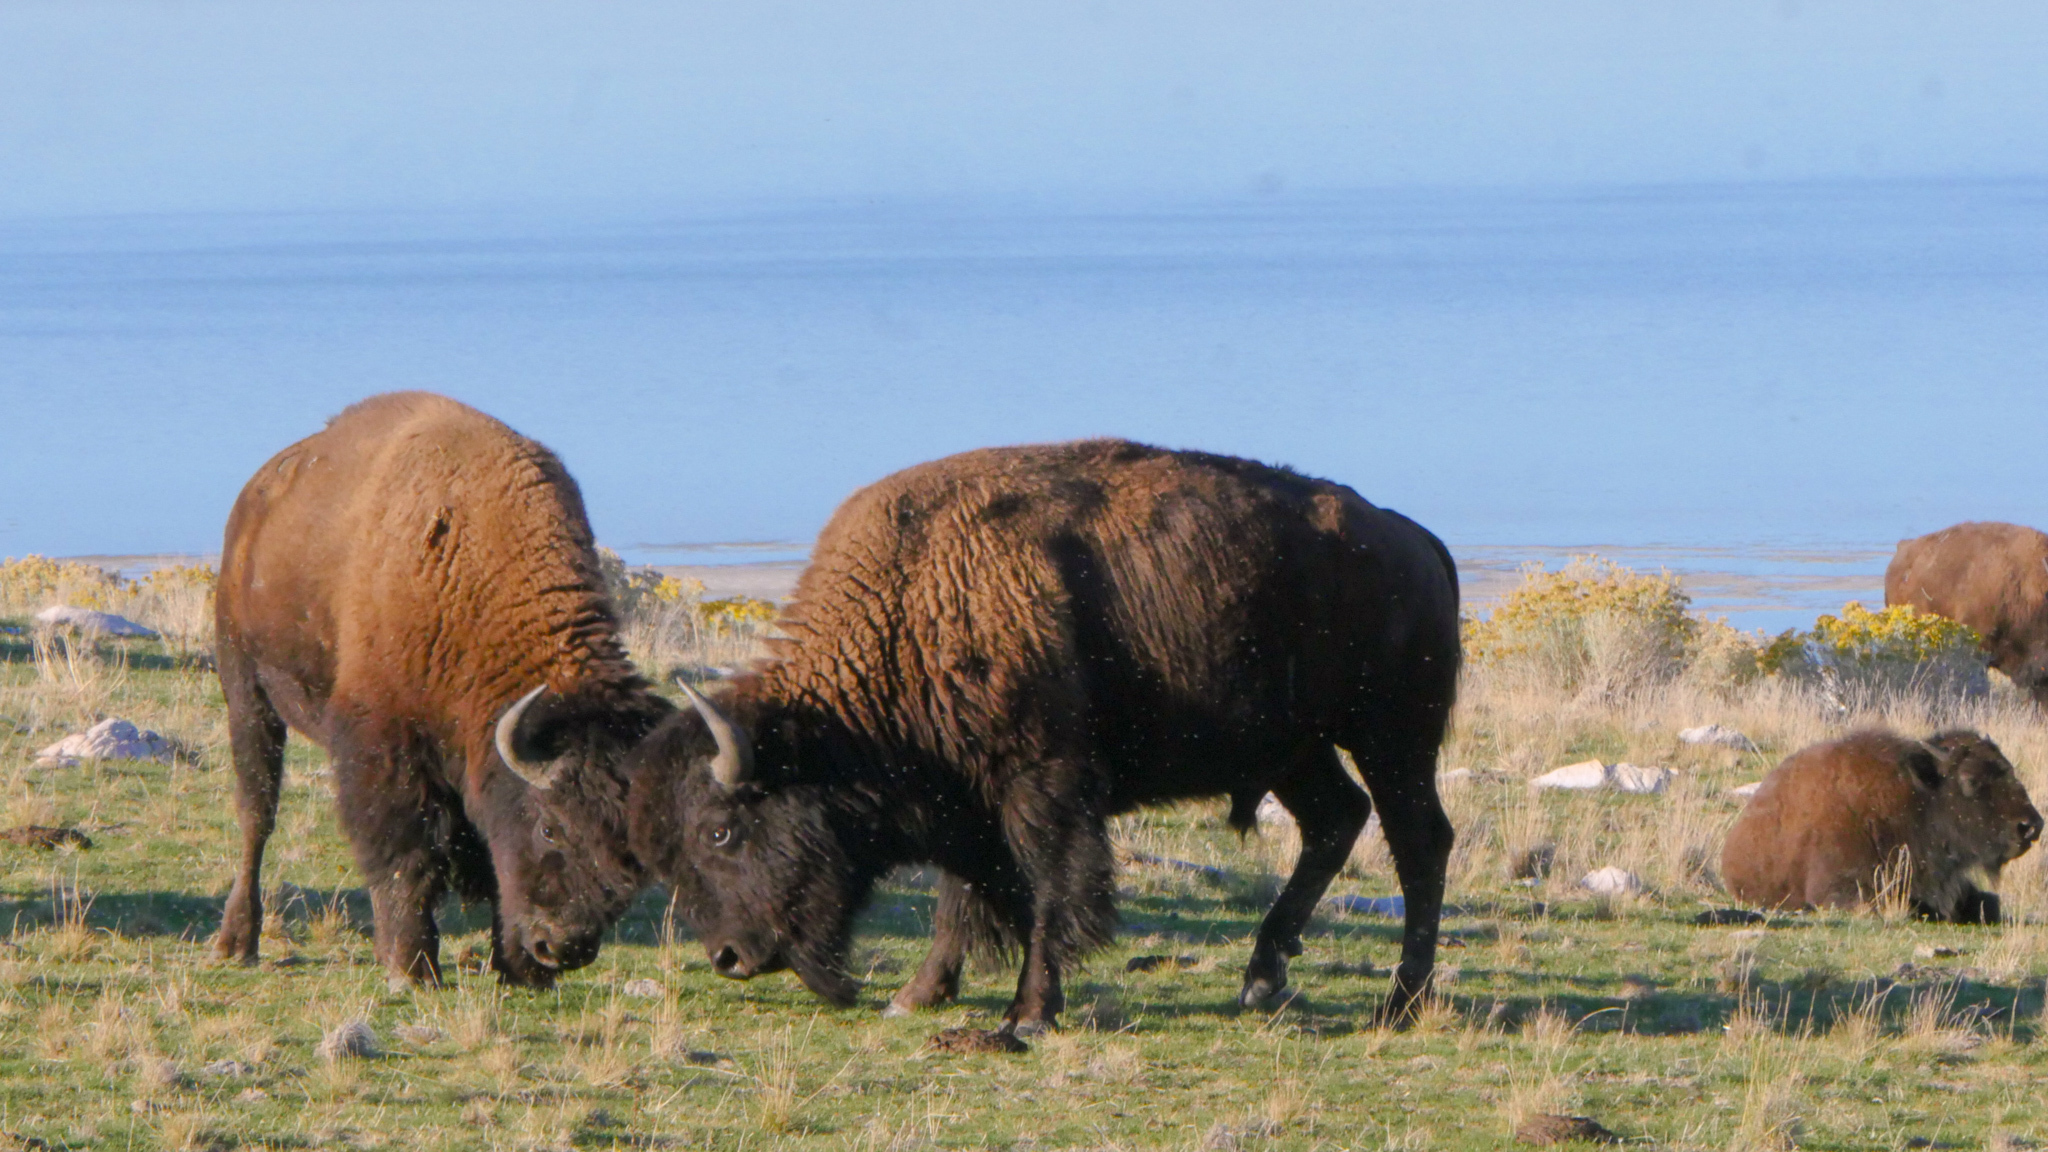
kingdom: Animalia
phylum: Chordata
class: Mammalia
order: Artiodactyla
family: Bovidae
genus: Bison
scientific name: Bison bison
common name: American bison
